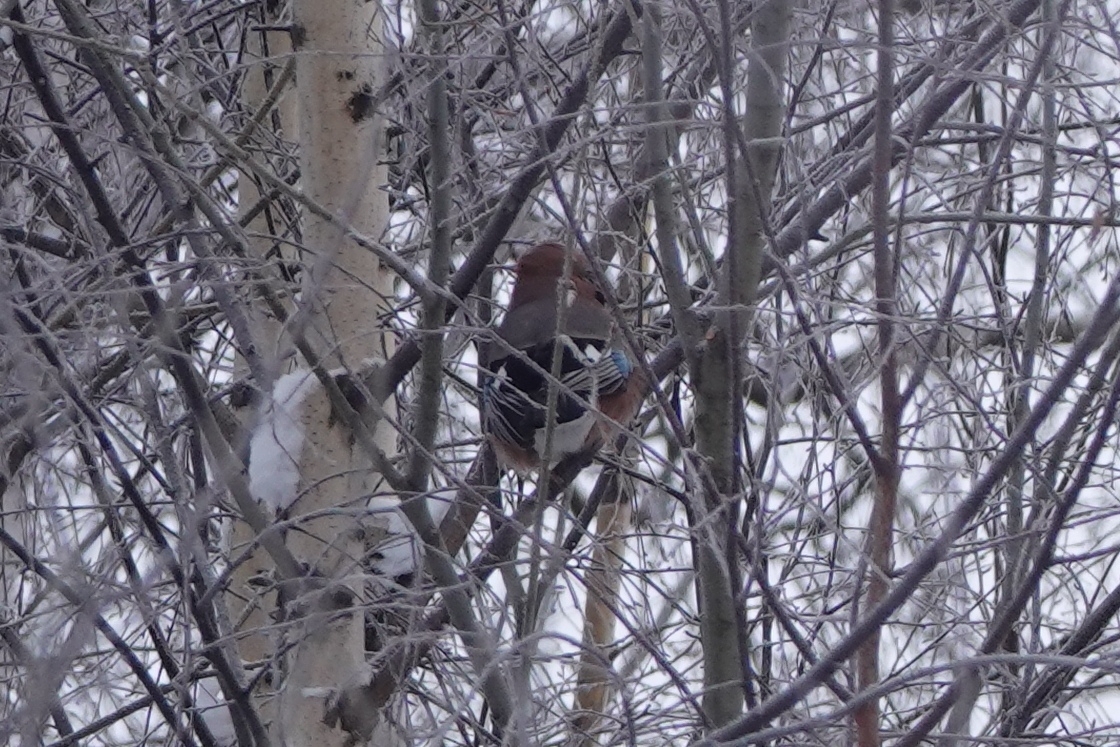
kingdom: Animalia
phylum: Chordata
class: Aves
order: Passeriformes
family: Corvidae
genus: Garrulus
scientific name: Garrulus glandarius
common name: Eurasian jay
